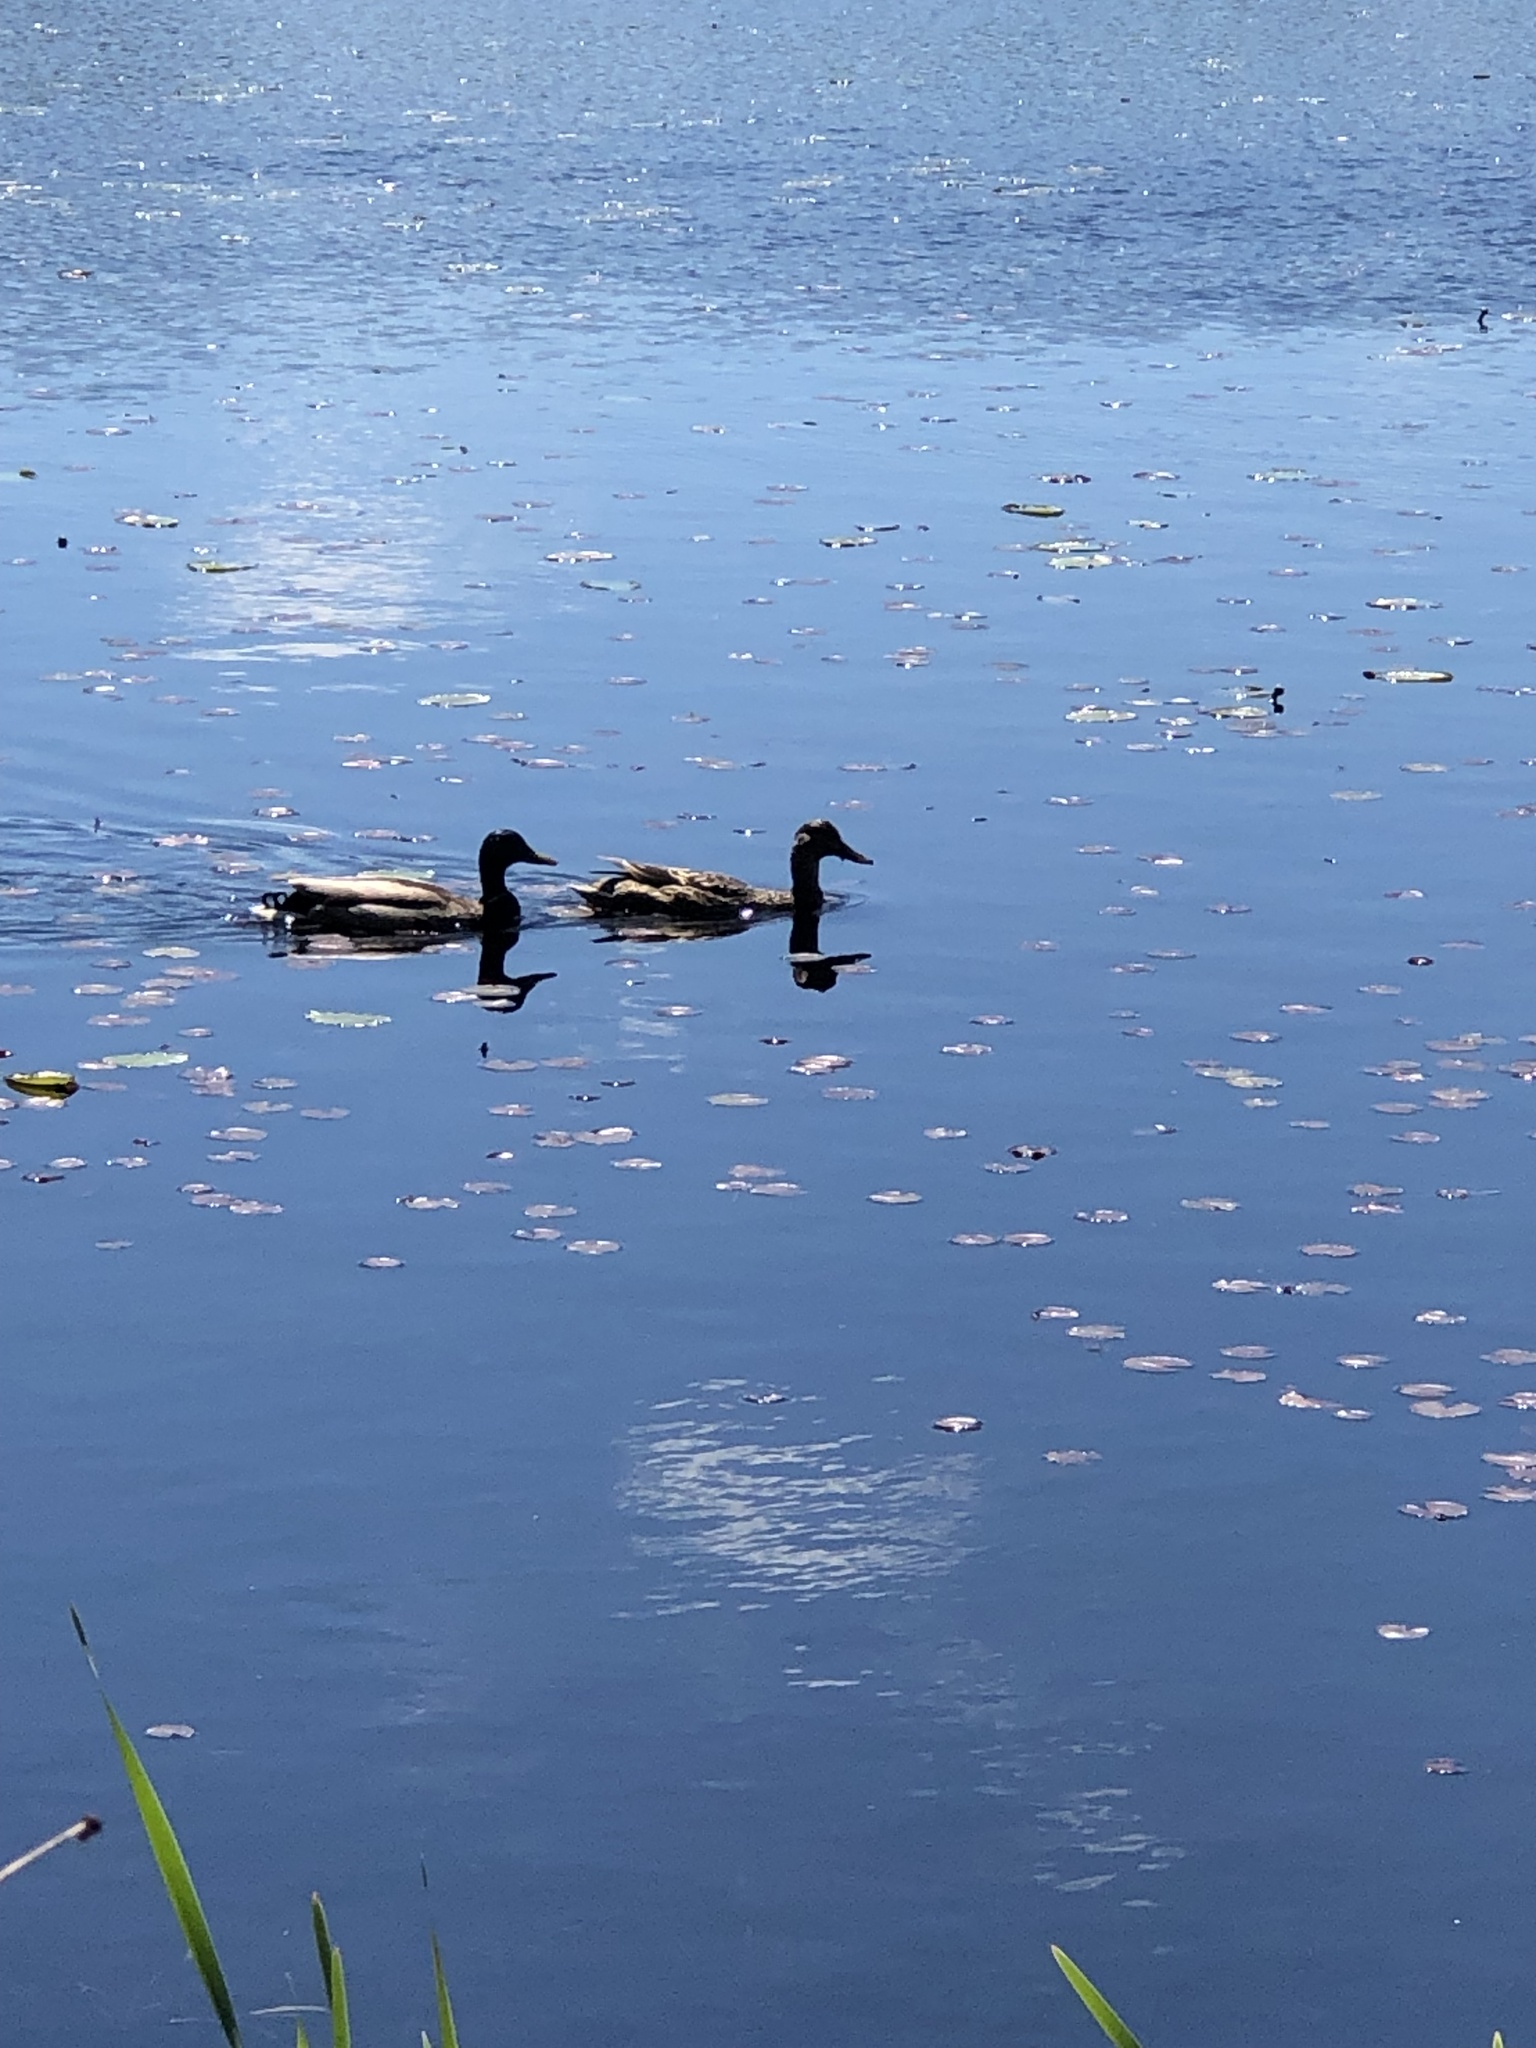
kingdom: Animalia
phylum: Chordata
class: Aves
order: Anseriformes
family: Anatidae
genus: Anas
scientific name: Anas platyrhynchos
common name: Mallard
